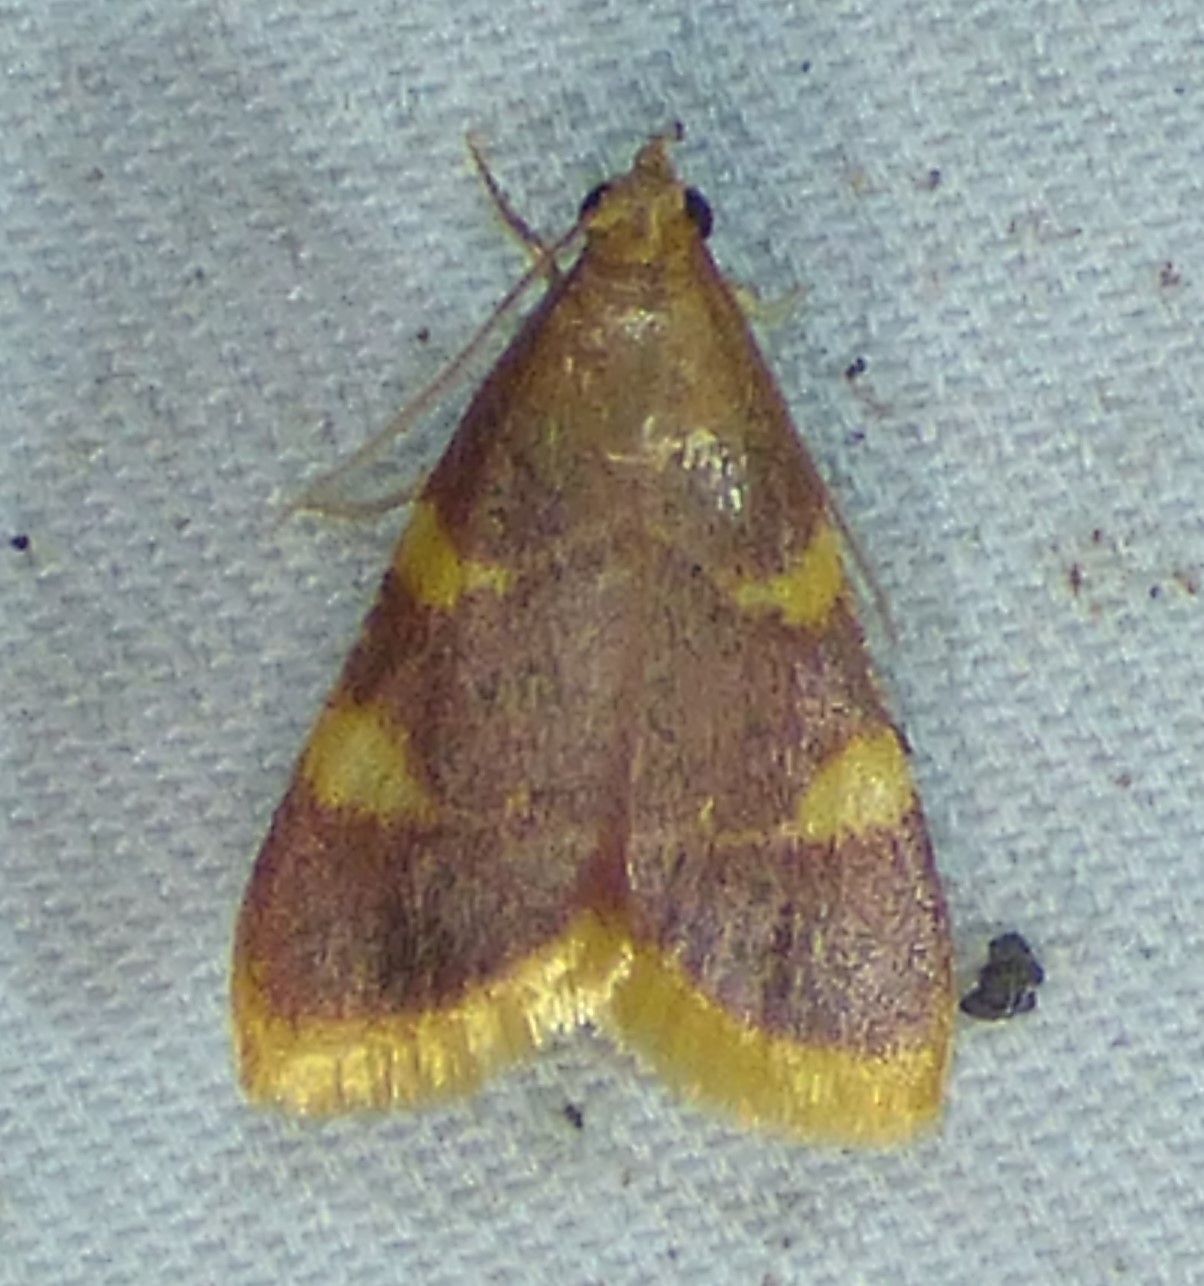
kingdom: Animalia
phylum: Arthropoda
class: Insecta
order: Lepidoptera
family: Pyralidae
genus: Hypsopygia
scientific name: Hypsopygia costalis
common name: Gold triangle
